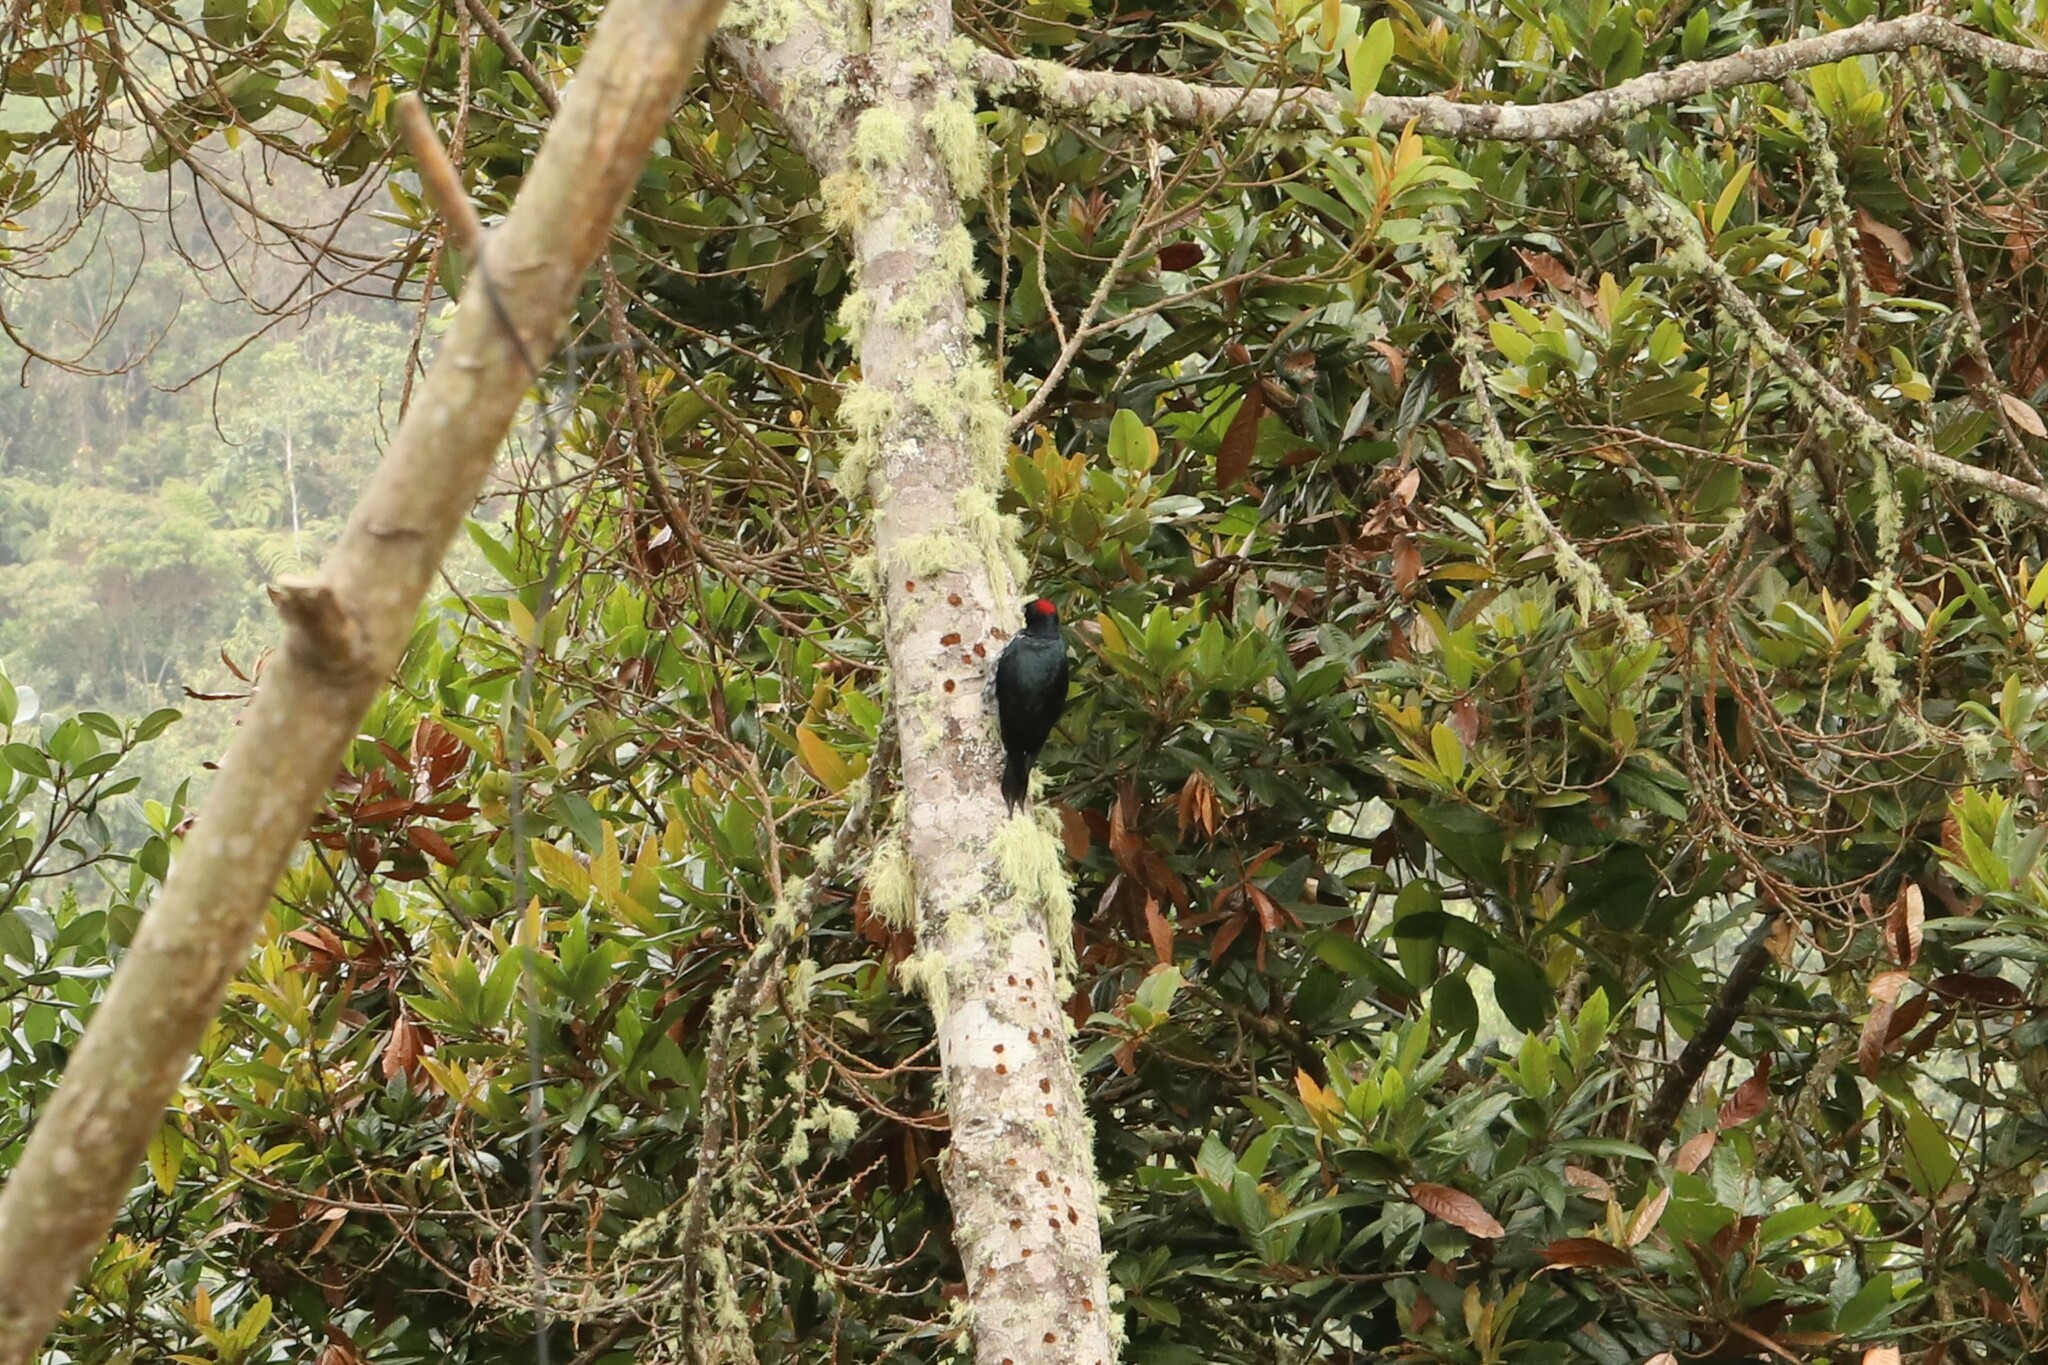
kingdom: Animalia
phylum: Chordata
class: Aves
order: Piciformes
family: Picidae
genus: Melanerpes
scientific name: Melanerpes formicivorus
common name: Acorn woodpecker
